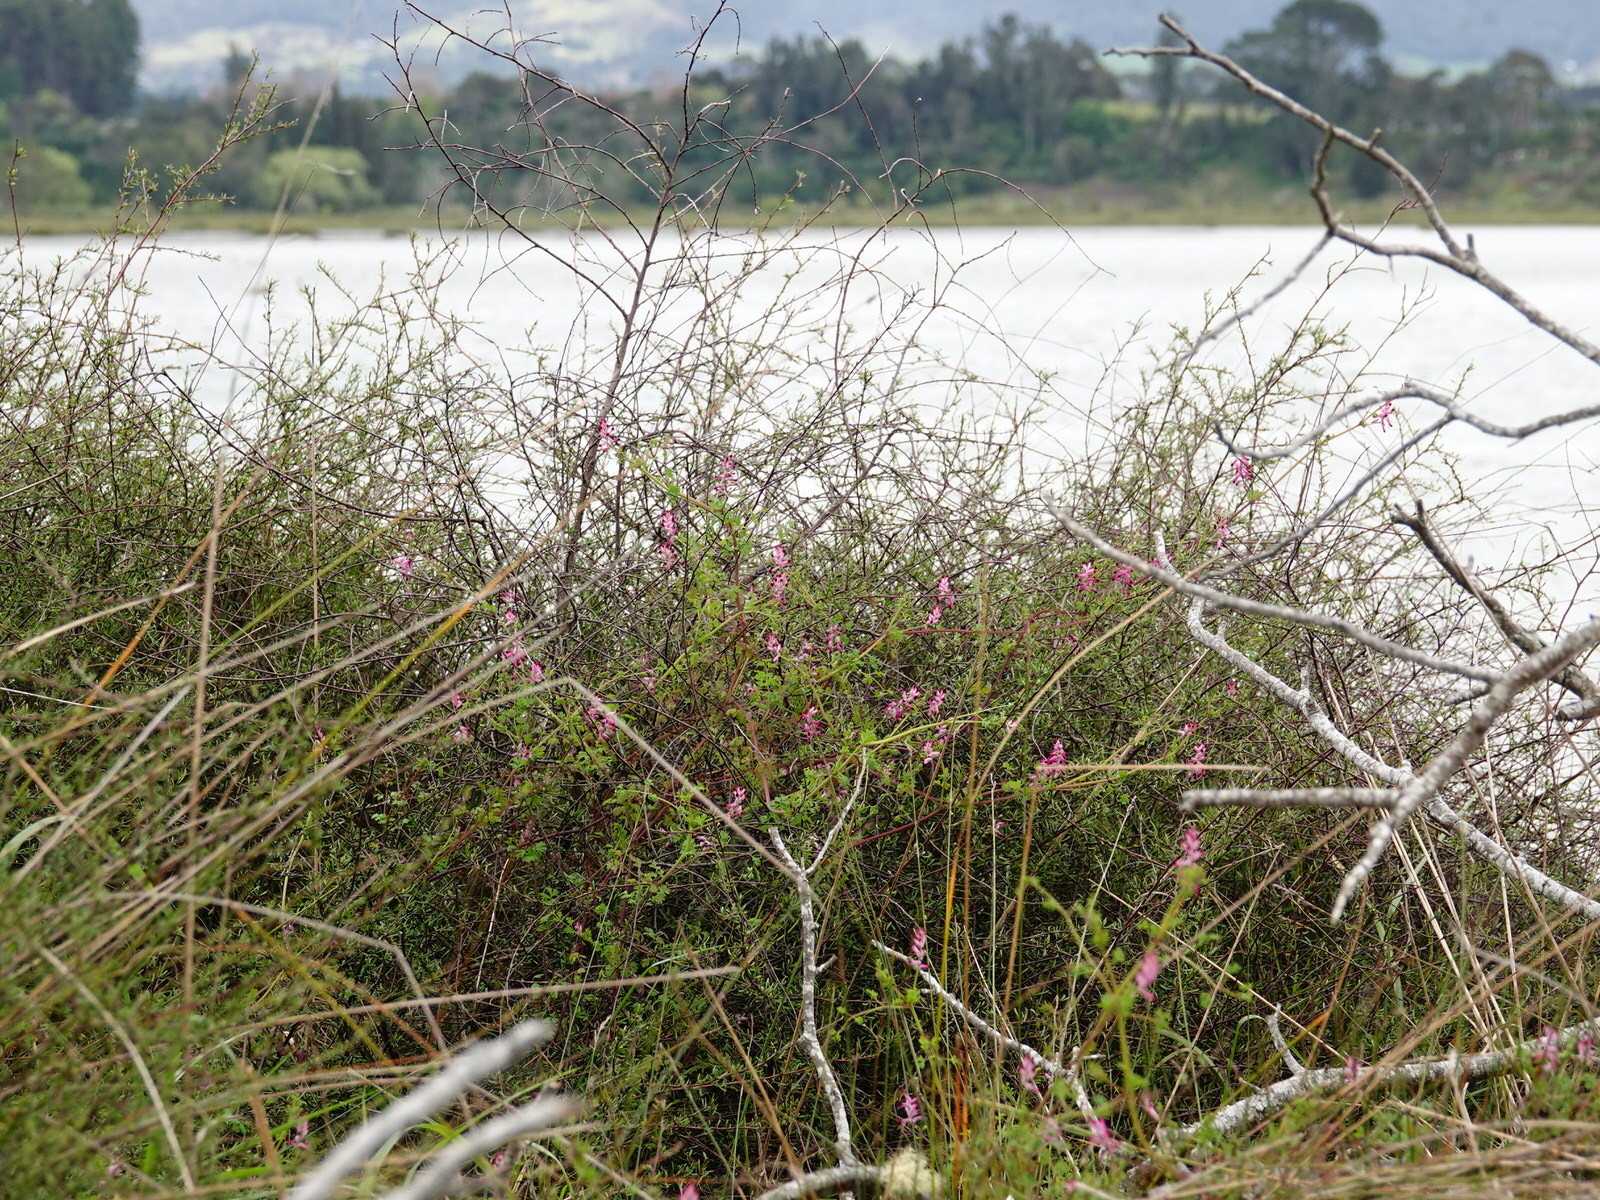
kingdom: Plantae
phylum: Tracheophyta
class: Magnoliopsida
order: Ranunculales
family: Papaveraceae
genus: Fumaria
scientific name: Fumaria muralis
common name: Common ramping-fumitory
